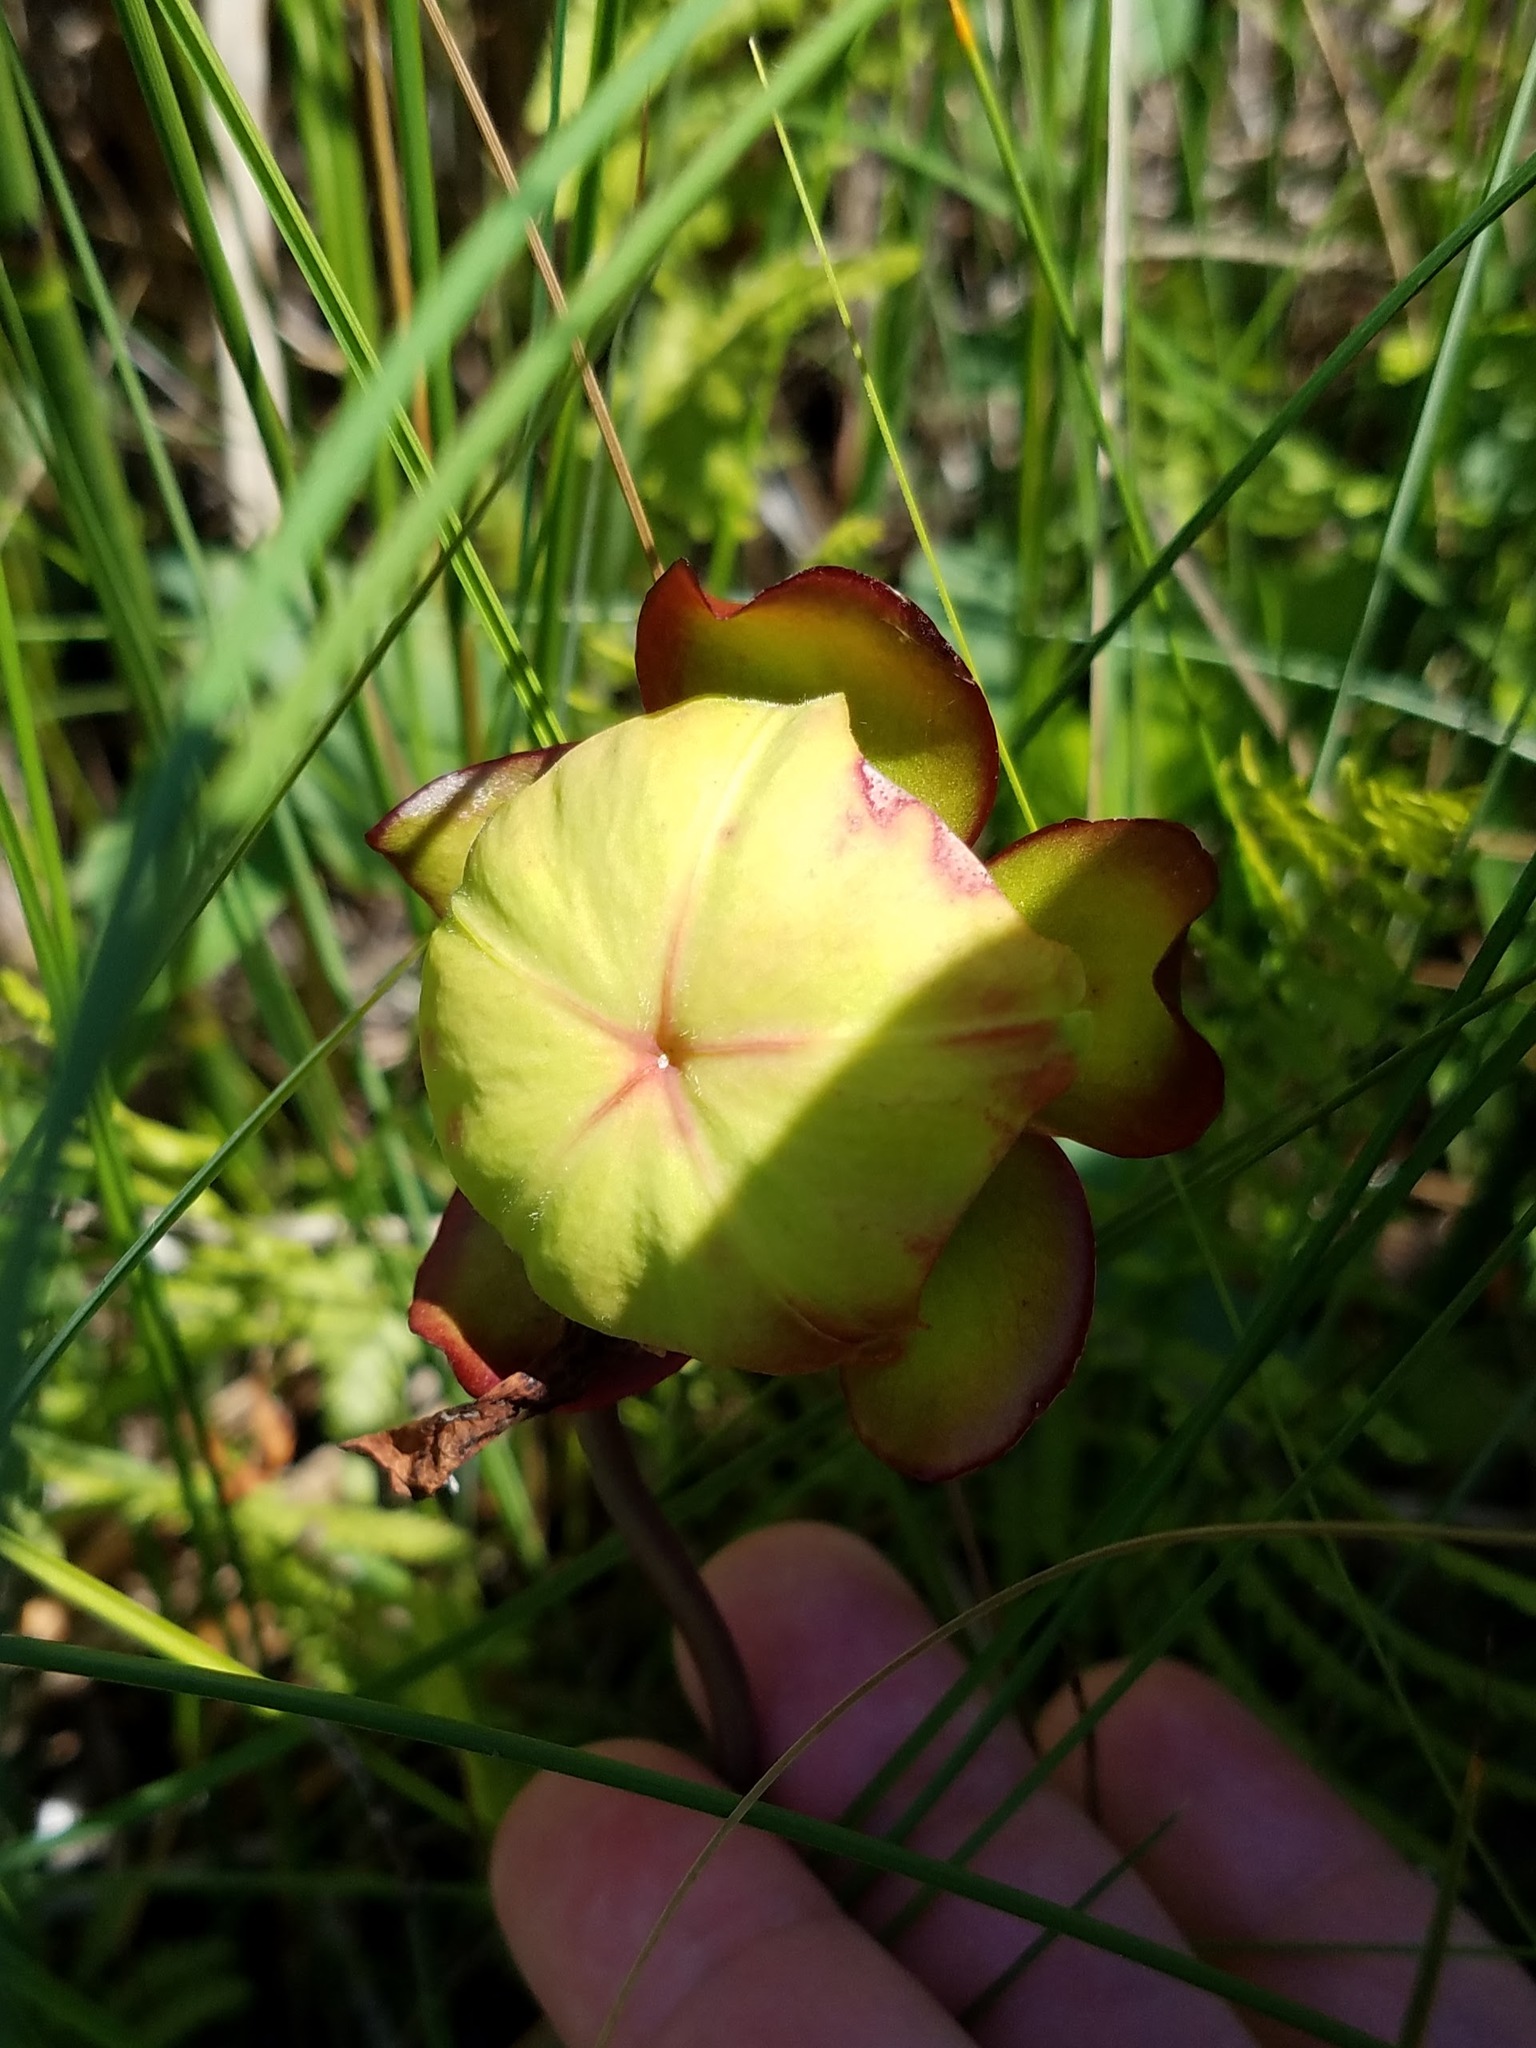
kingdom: Plantae
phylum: Tracheophyta
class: Magnoliopsida
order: Ericales
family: Sarraceniaceae
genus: Sarracenia
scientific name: Sarracenia purpurea
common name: Pitcherplant
